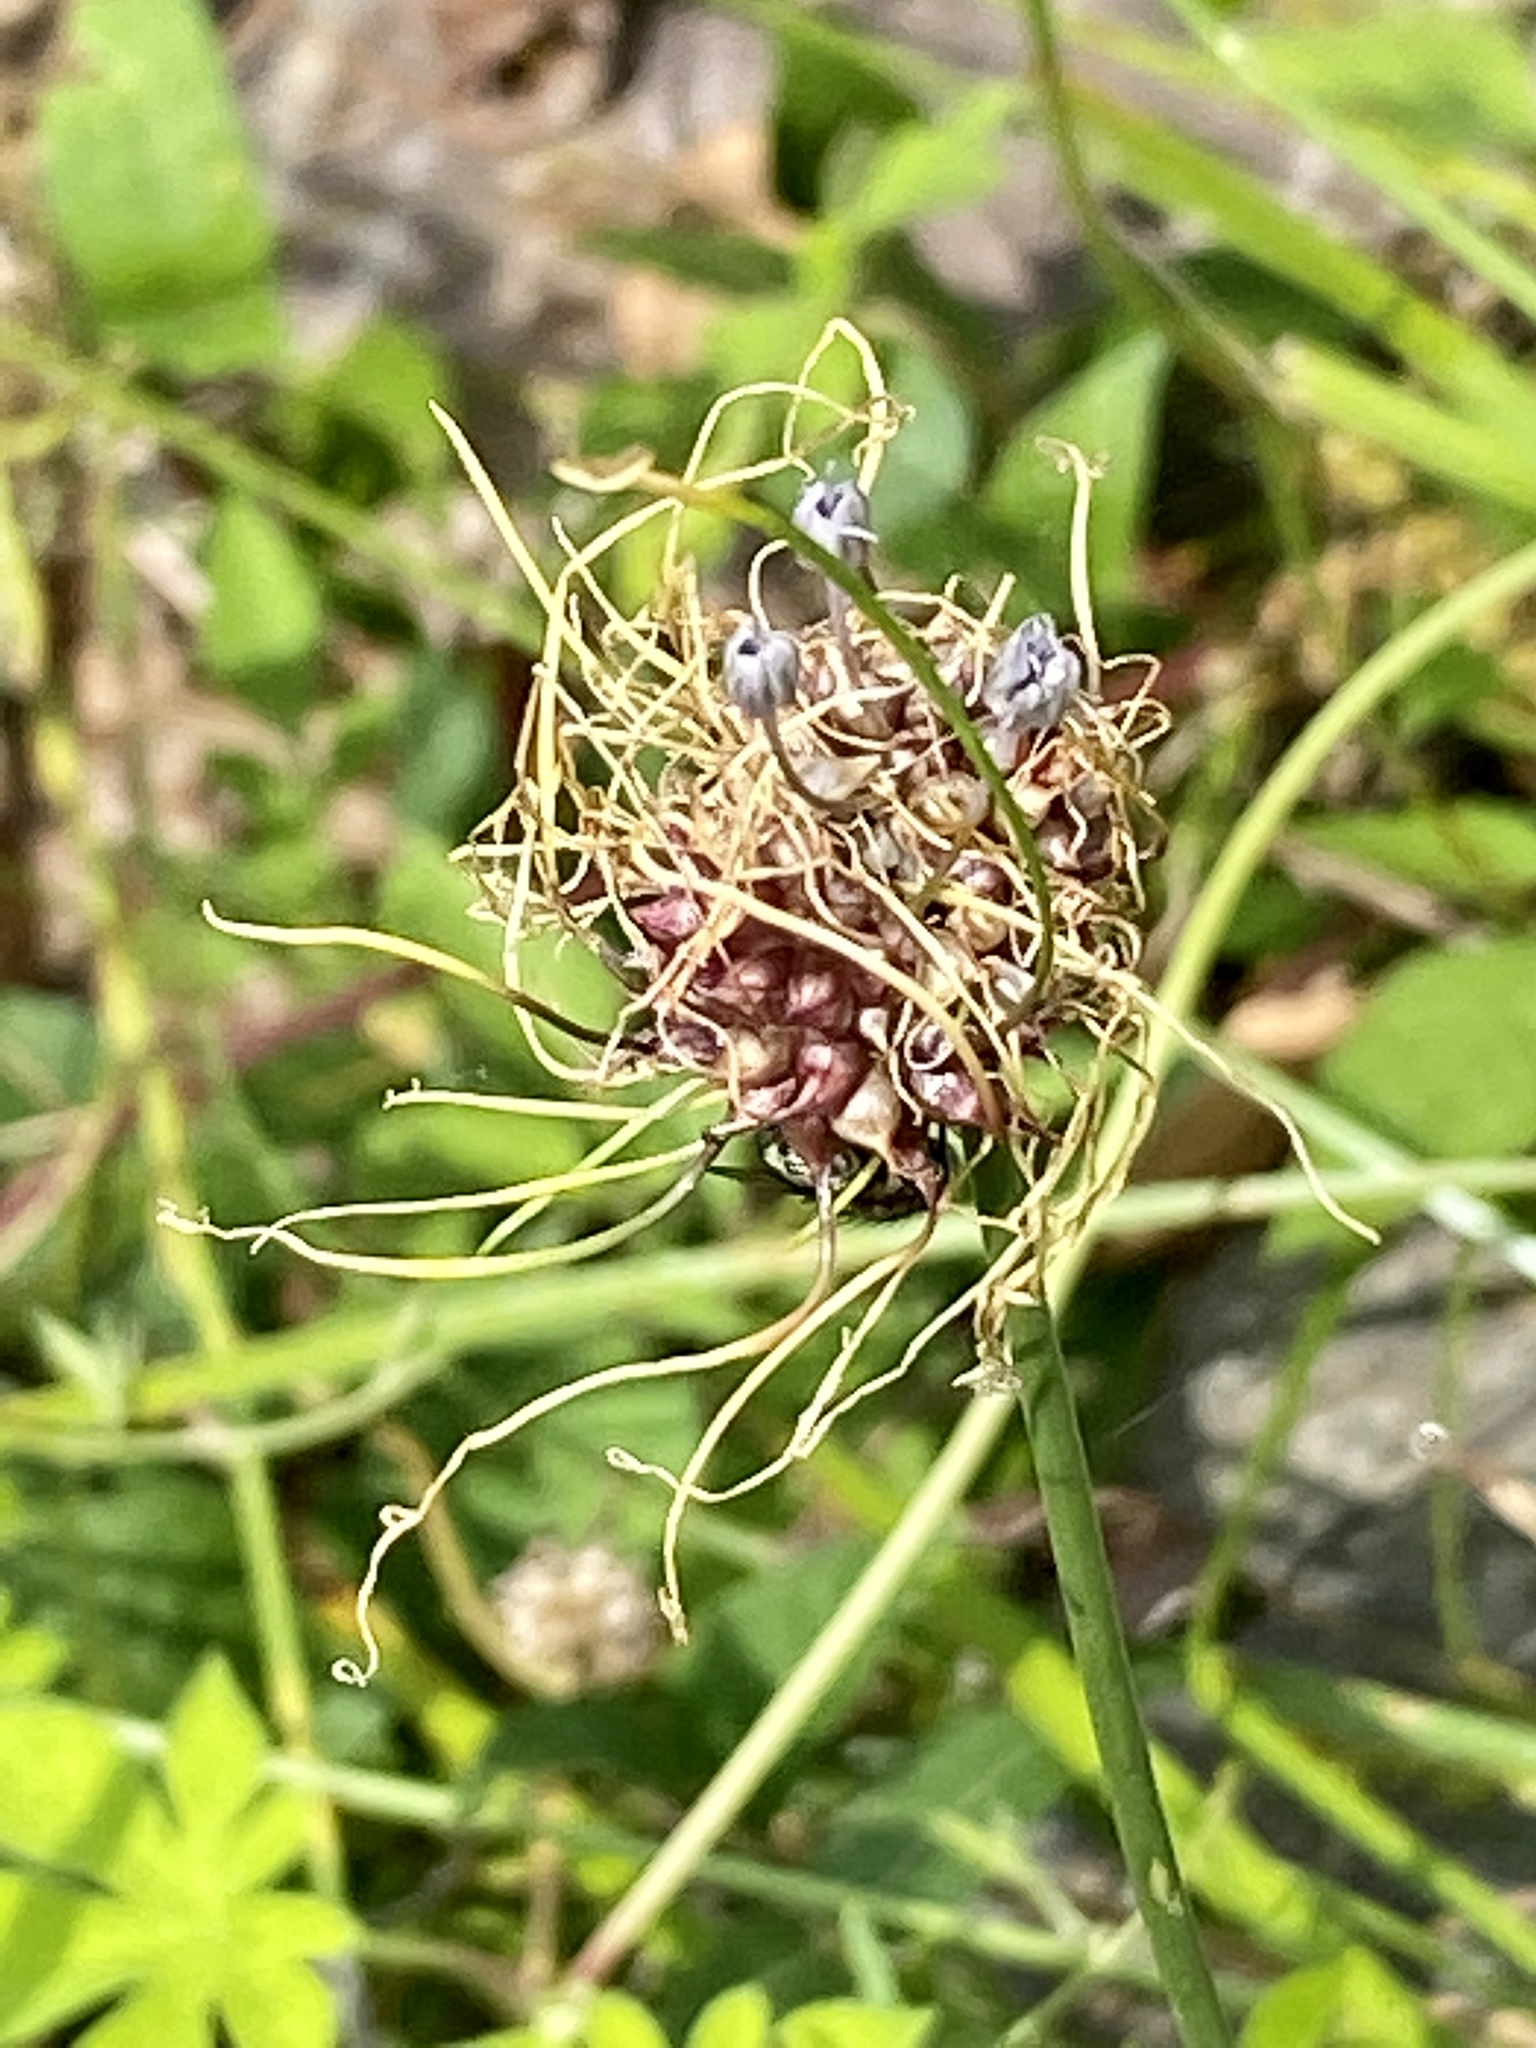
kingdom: Plantae
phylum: Tracheophyta
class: Liliopsida
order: Asparagales
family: Amaryllidaceae
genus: Allium
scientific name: Allium vineale
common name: Crow garlic
